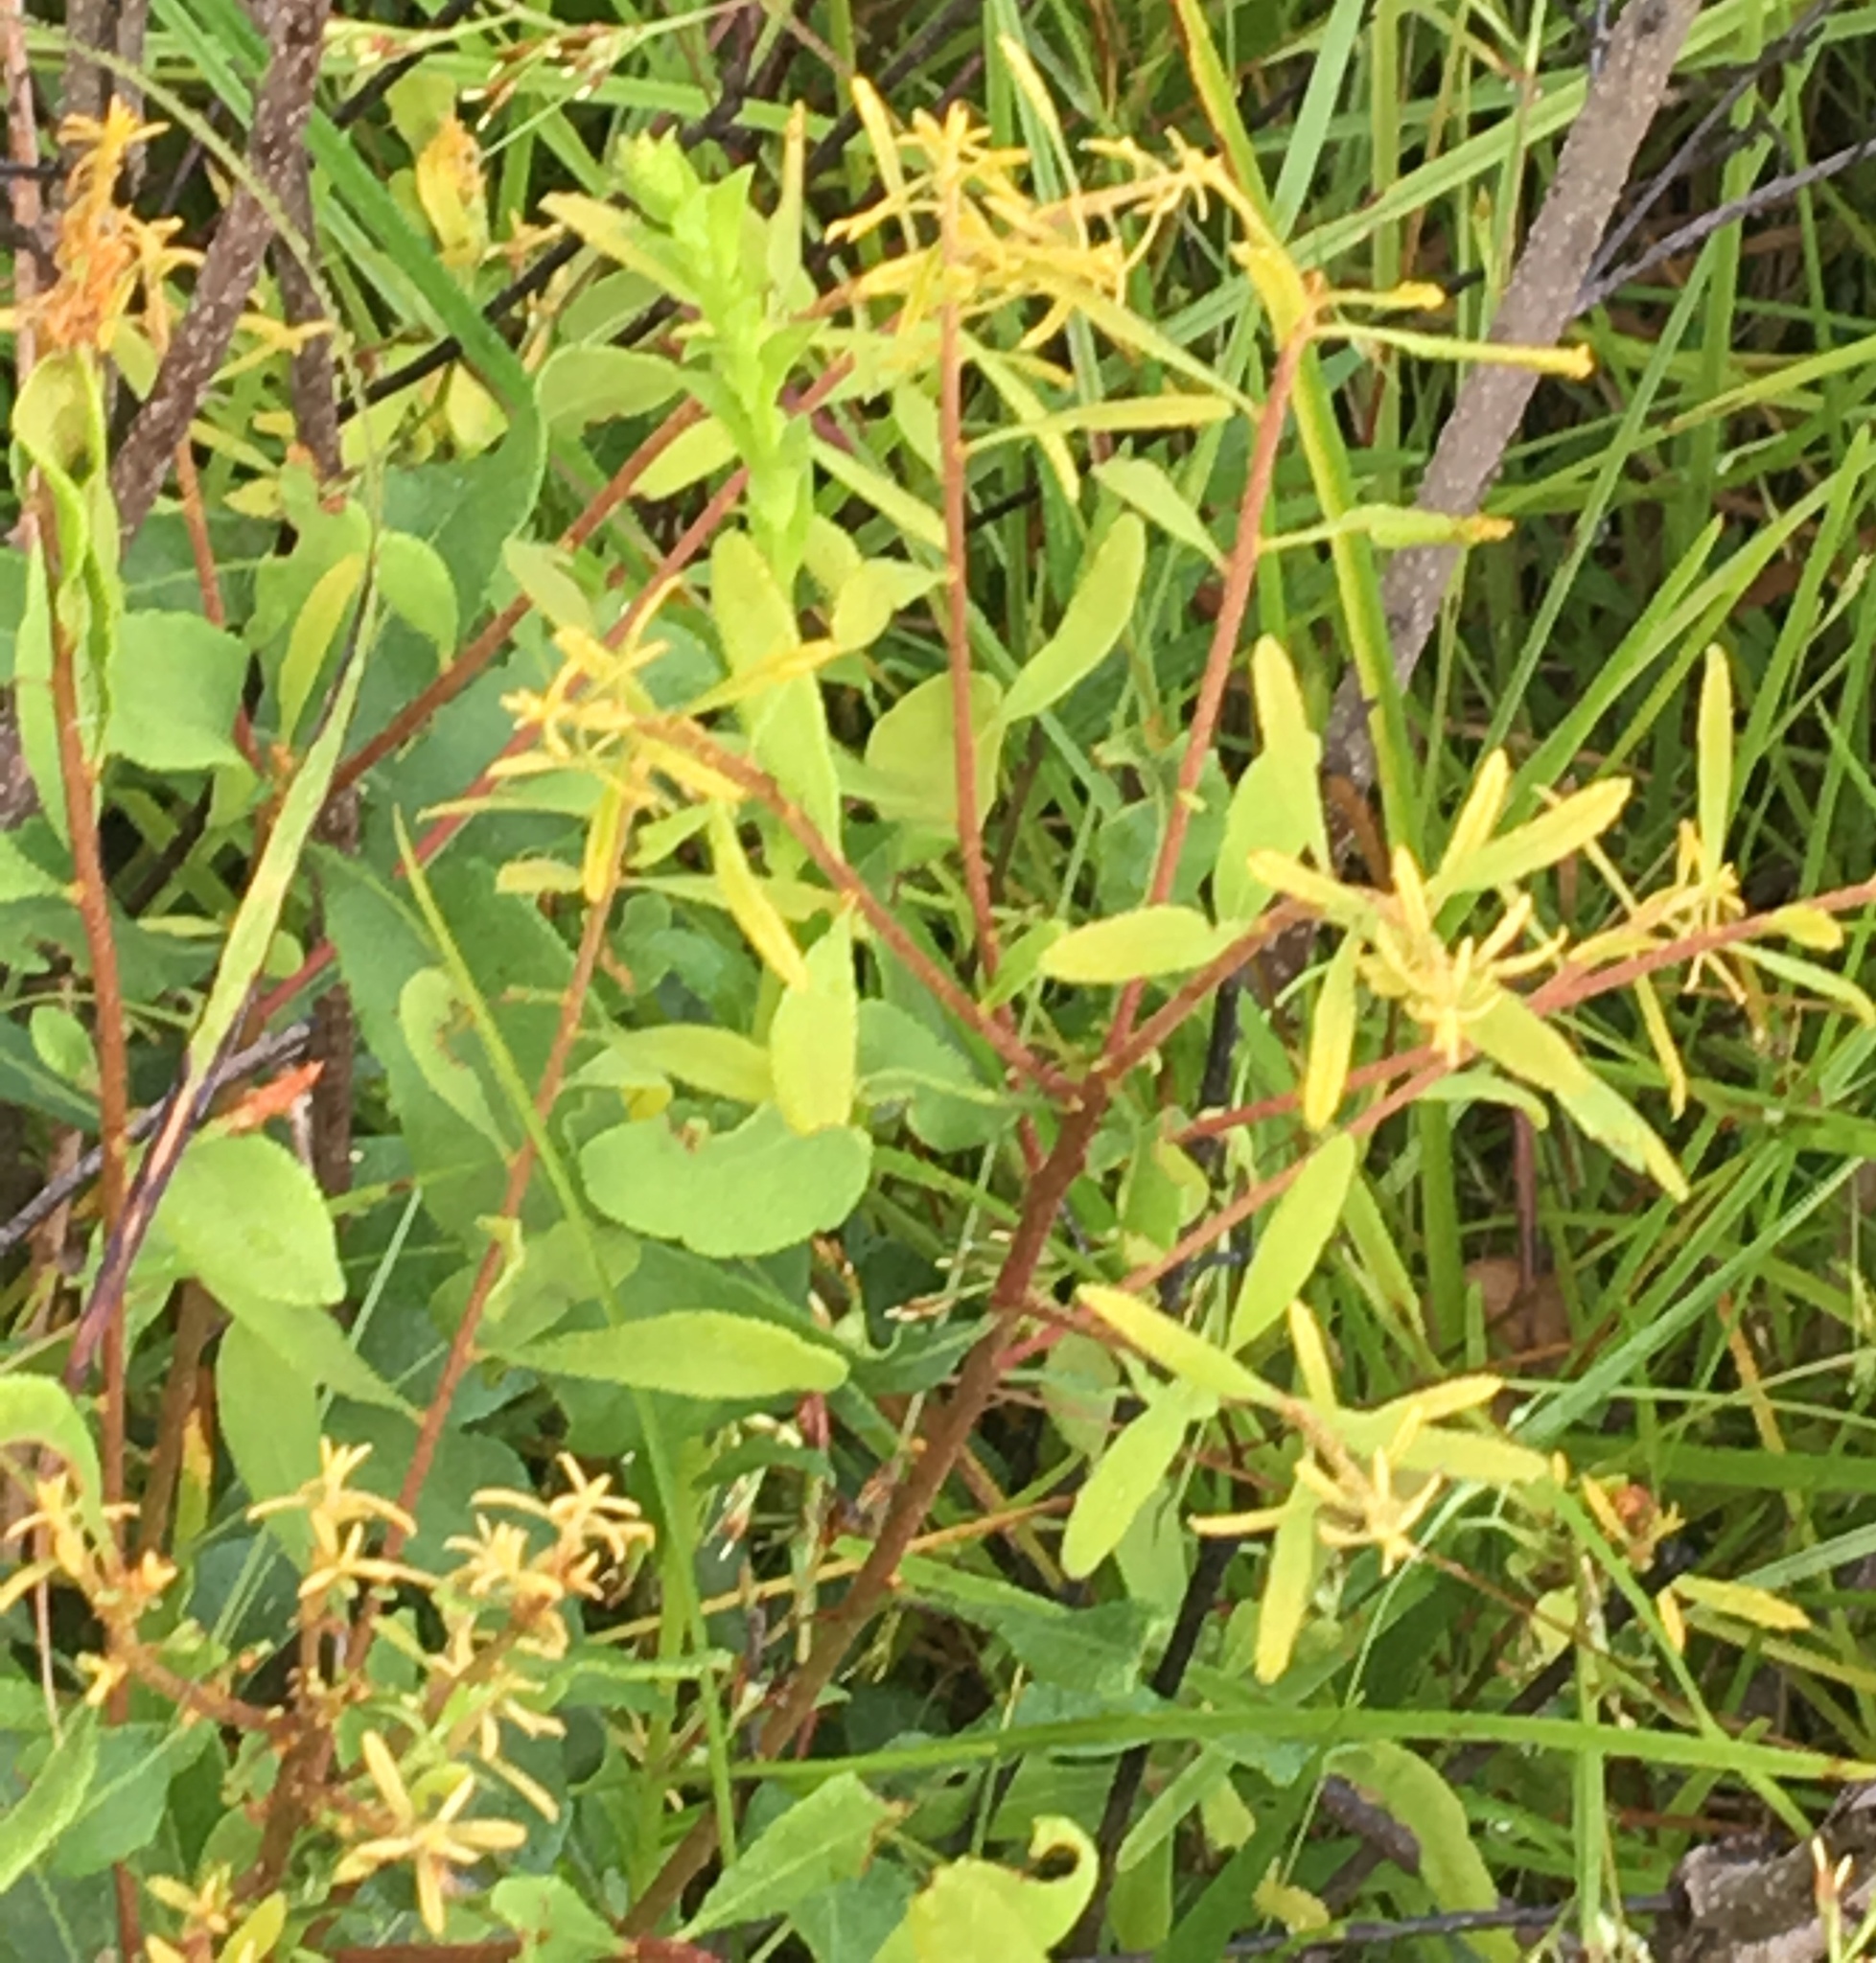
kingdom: Plantae
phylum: Tracheophyta
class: Magnoliopsida
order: Fagales
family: Myricaceae
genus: Morella
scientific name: Morella cerifera
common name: Wax myrtle
